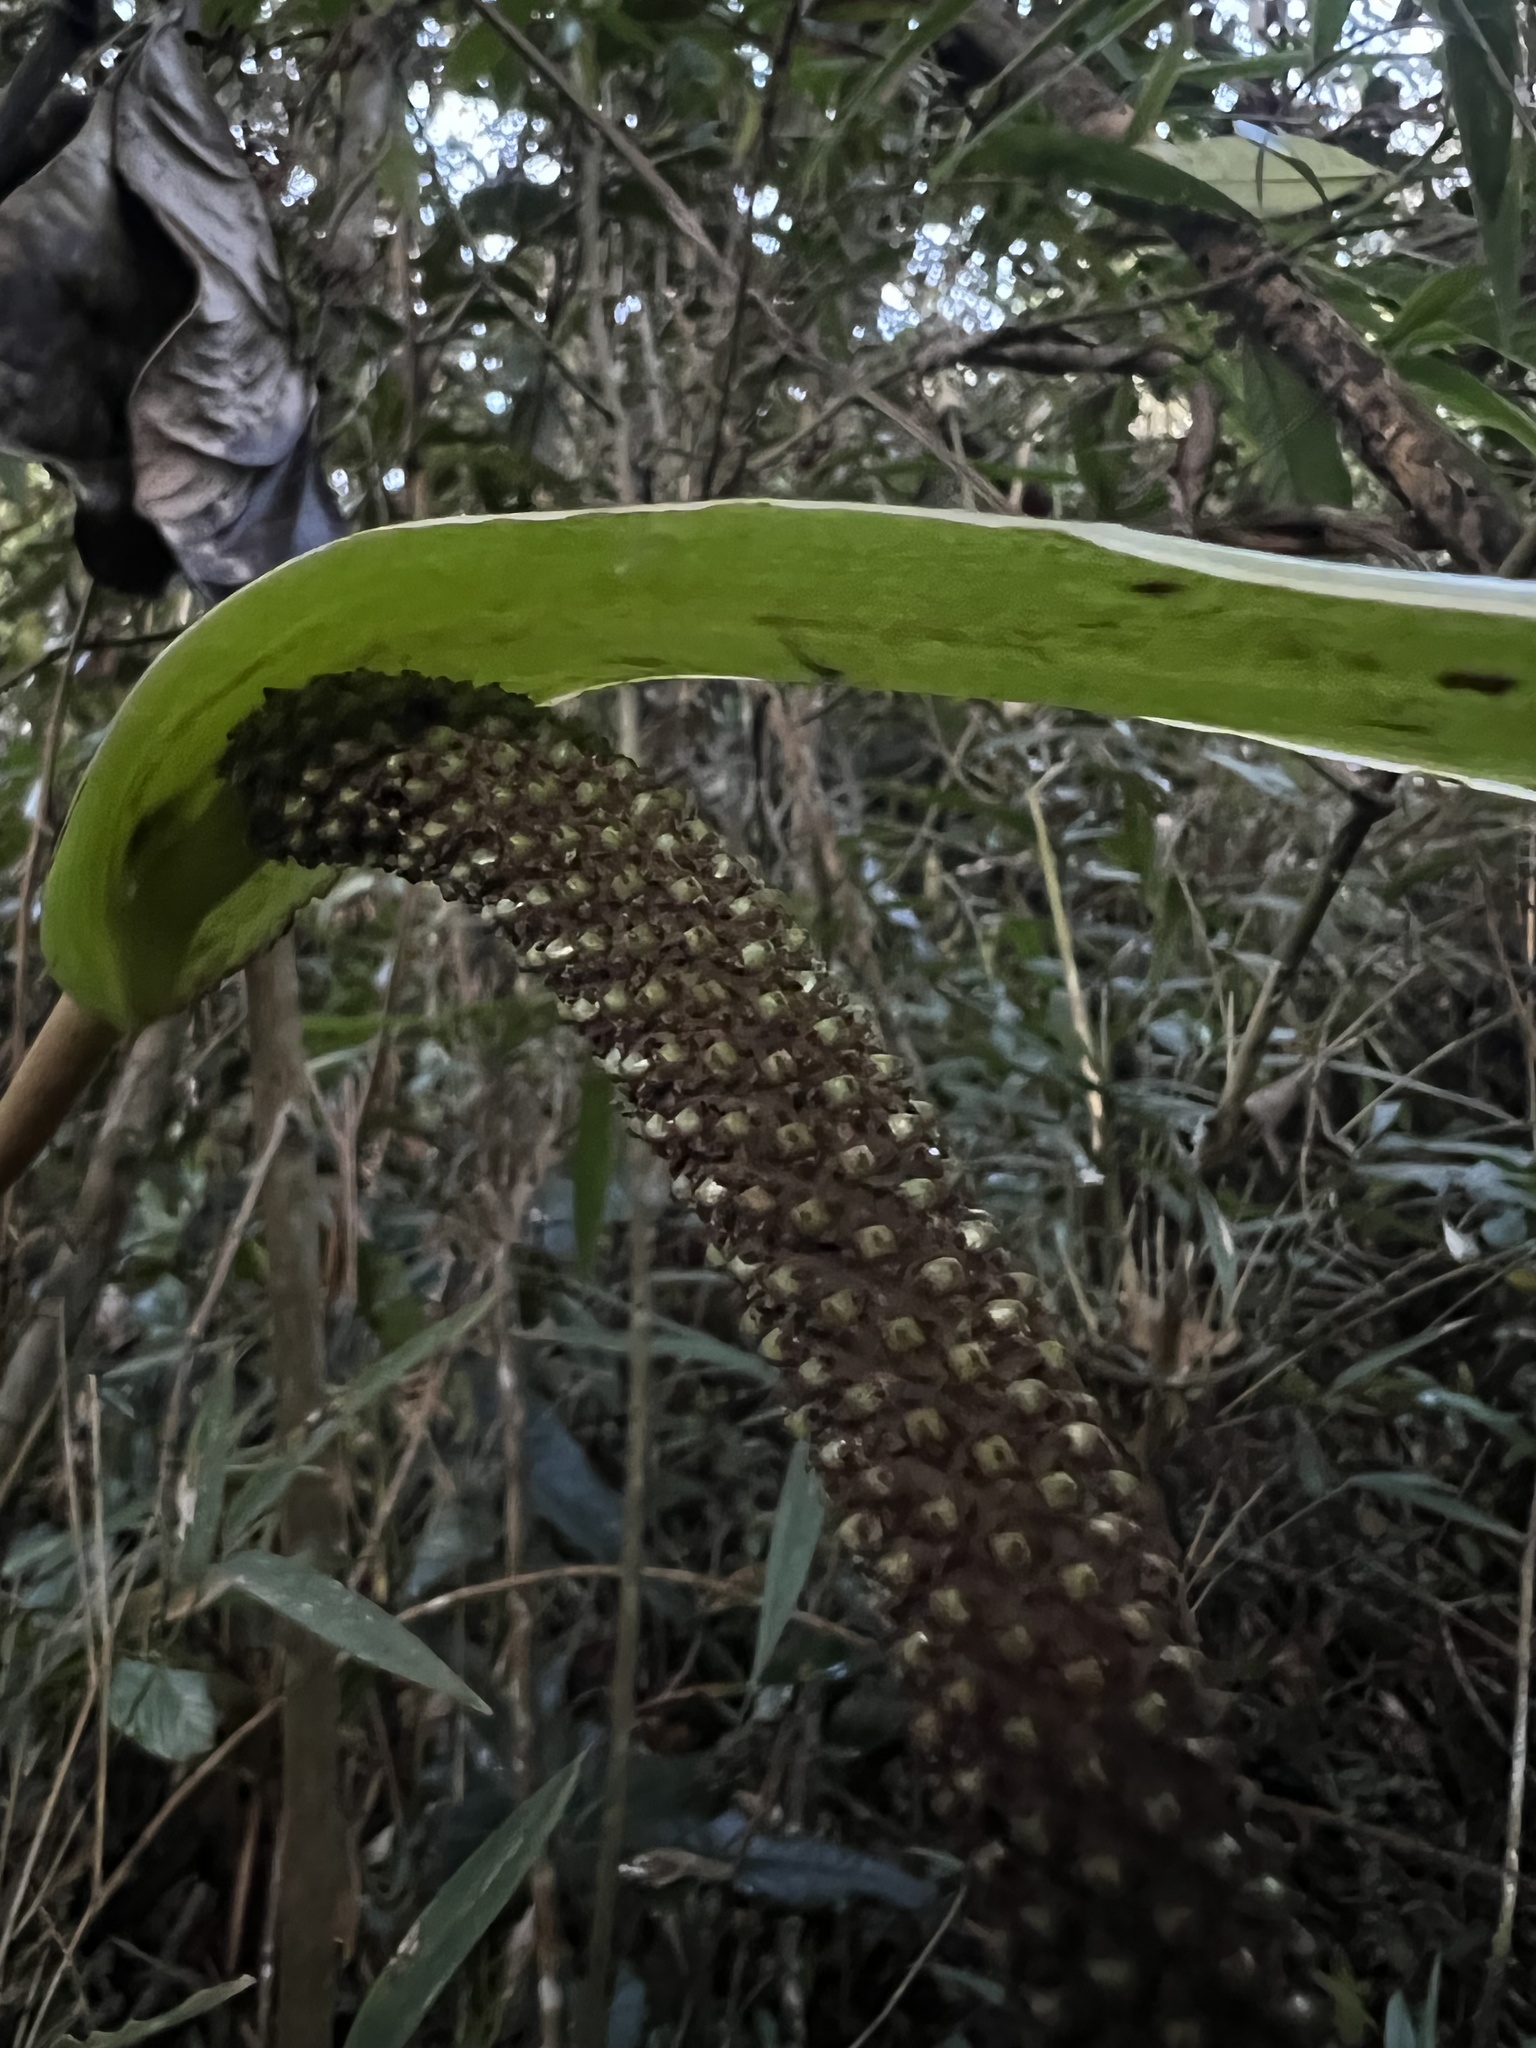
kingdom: Plantae
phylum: Tracheophyta
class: Liliopsida
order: Alismatales
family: Araceae
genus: Anthurium
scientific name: Anthurium oxybelium
